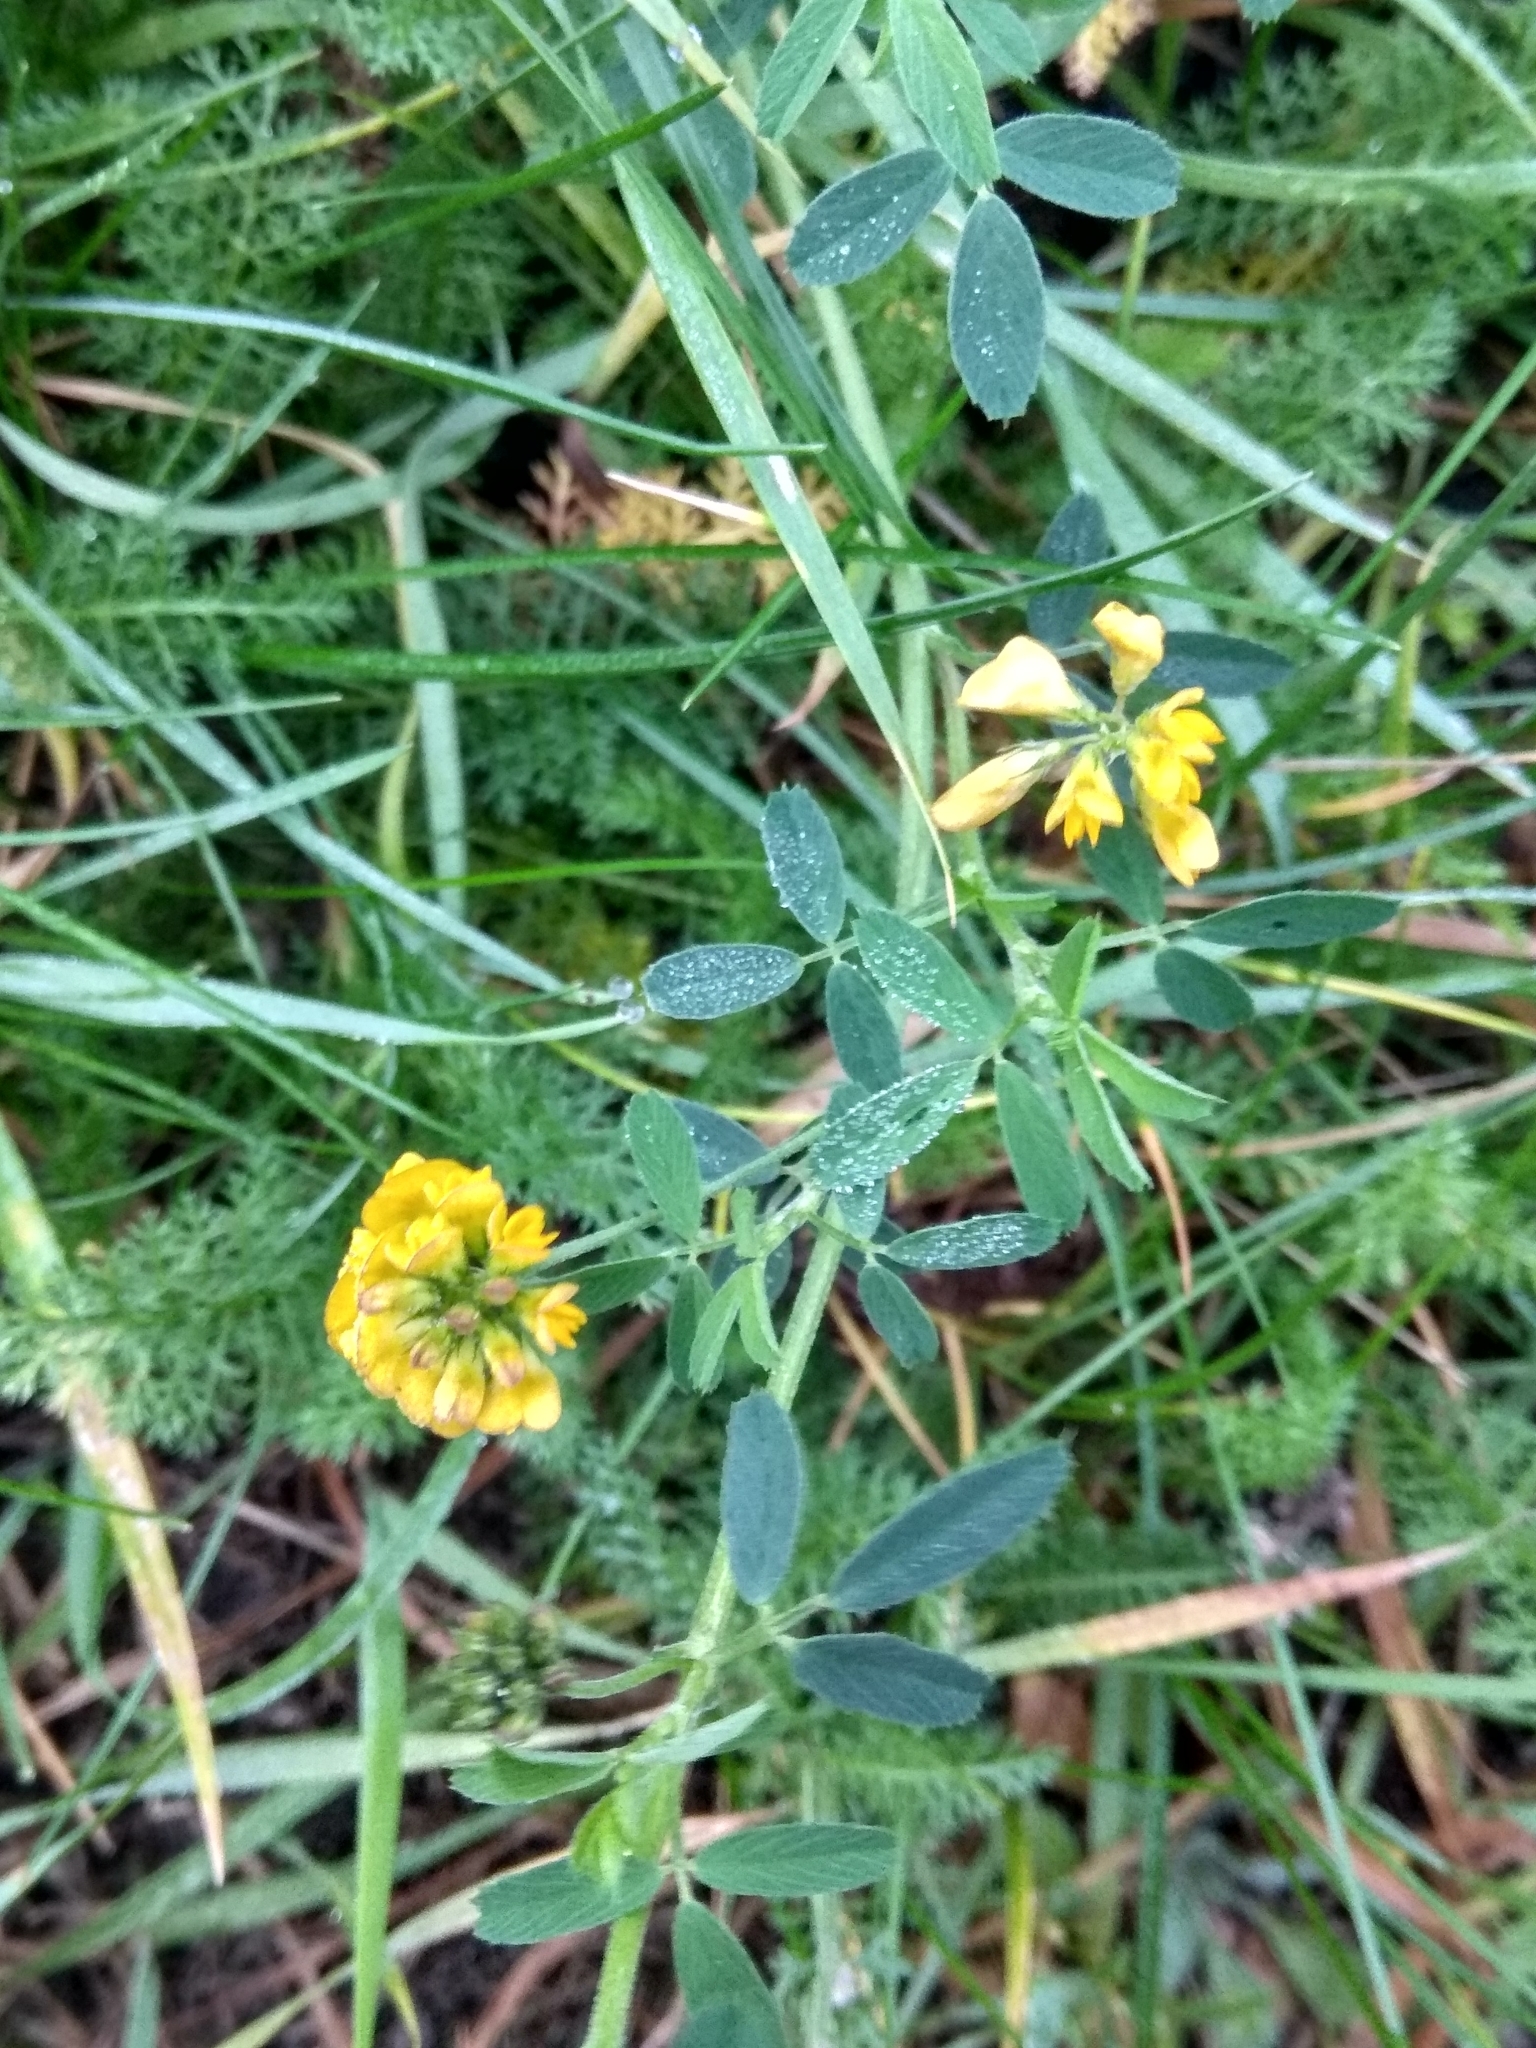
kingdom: Plantae
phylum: Tracheophyta
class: Magnoliopsida
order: Fabales
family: Fabaceae
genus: Medicago
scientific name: Medicago falcata
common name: Sickle medick
